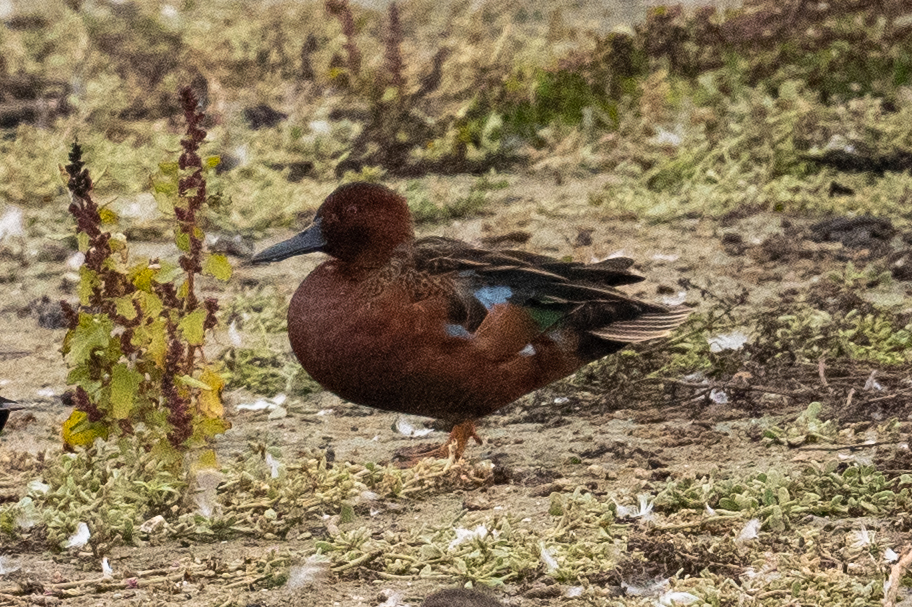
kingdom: Animalia
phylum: Chordata
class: Aves
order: Anseriformes
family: Anatidae
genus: Spatula
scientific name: Spatula cyanoptera
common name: Cinnamon teal
